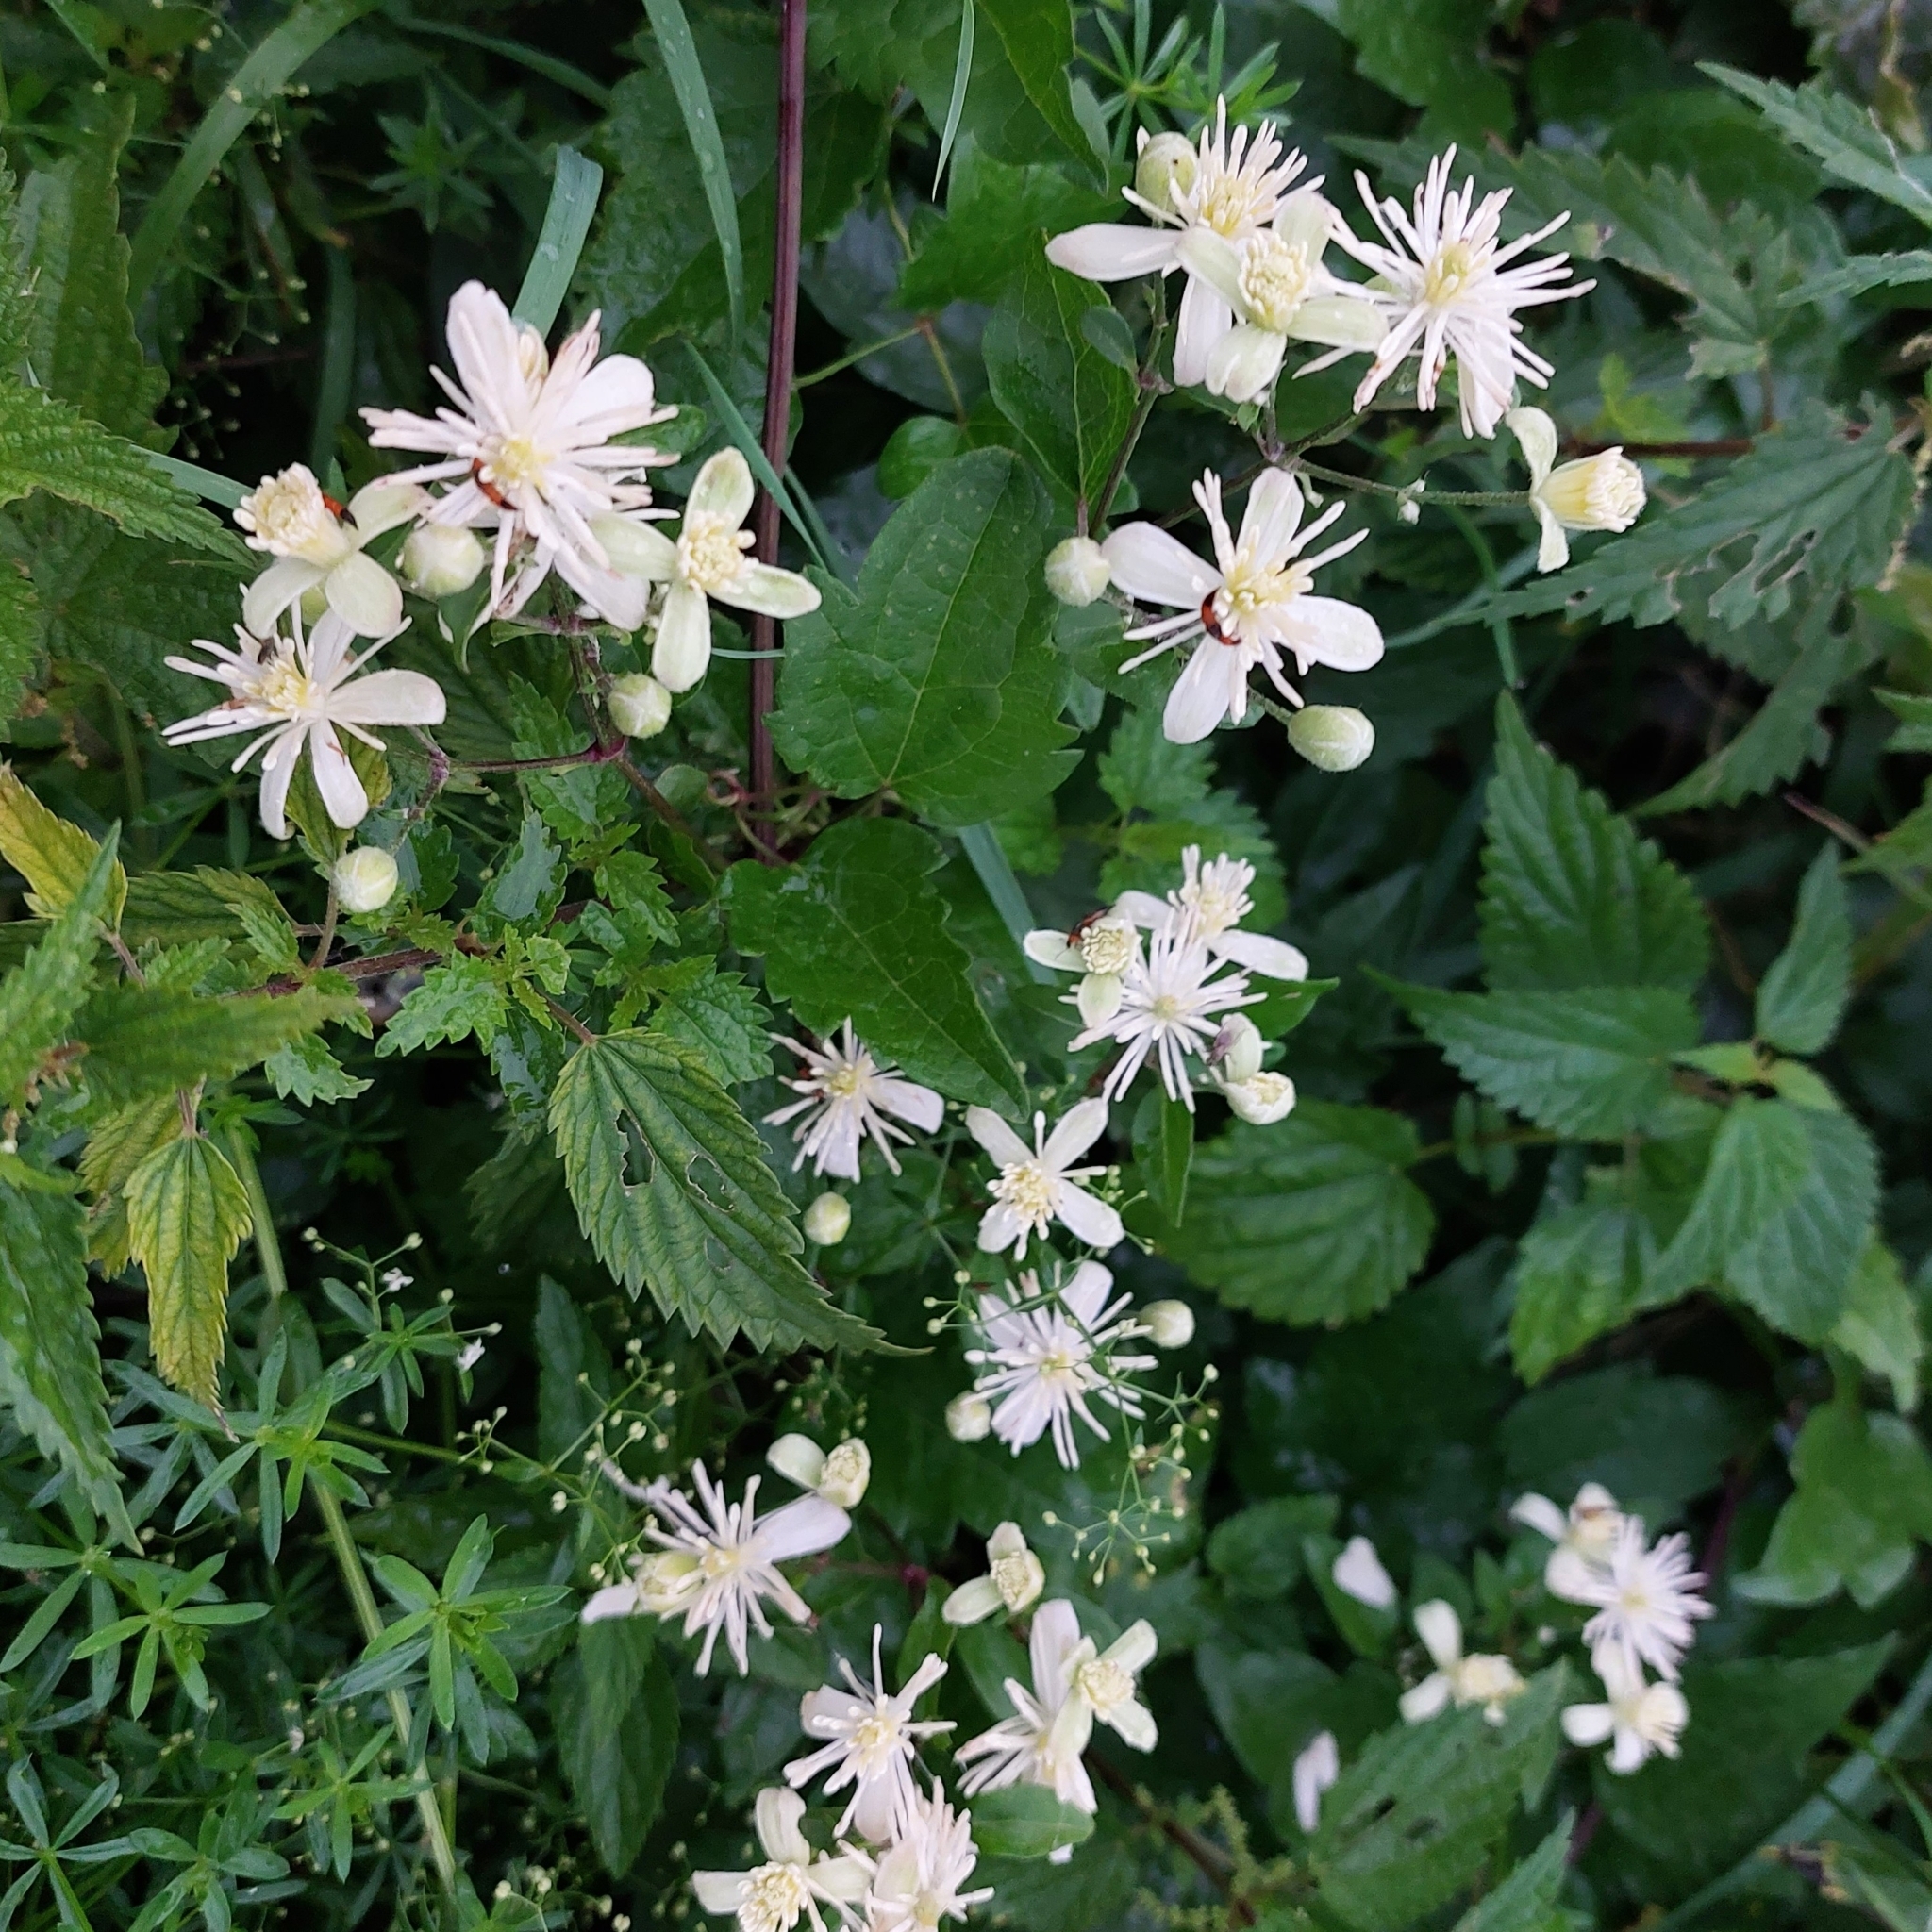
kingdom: Plantae
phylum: Tracheophyta
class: Magnoliopsida
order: Ranunculales
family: Ranunculaceae
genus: Clematis
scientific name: Clematis vitalba
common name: Evergreen clematis
